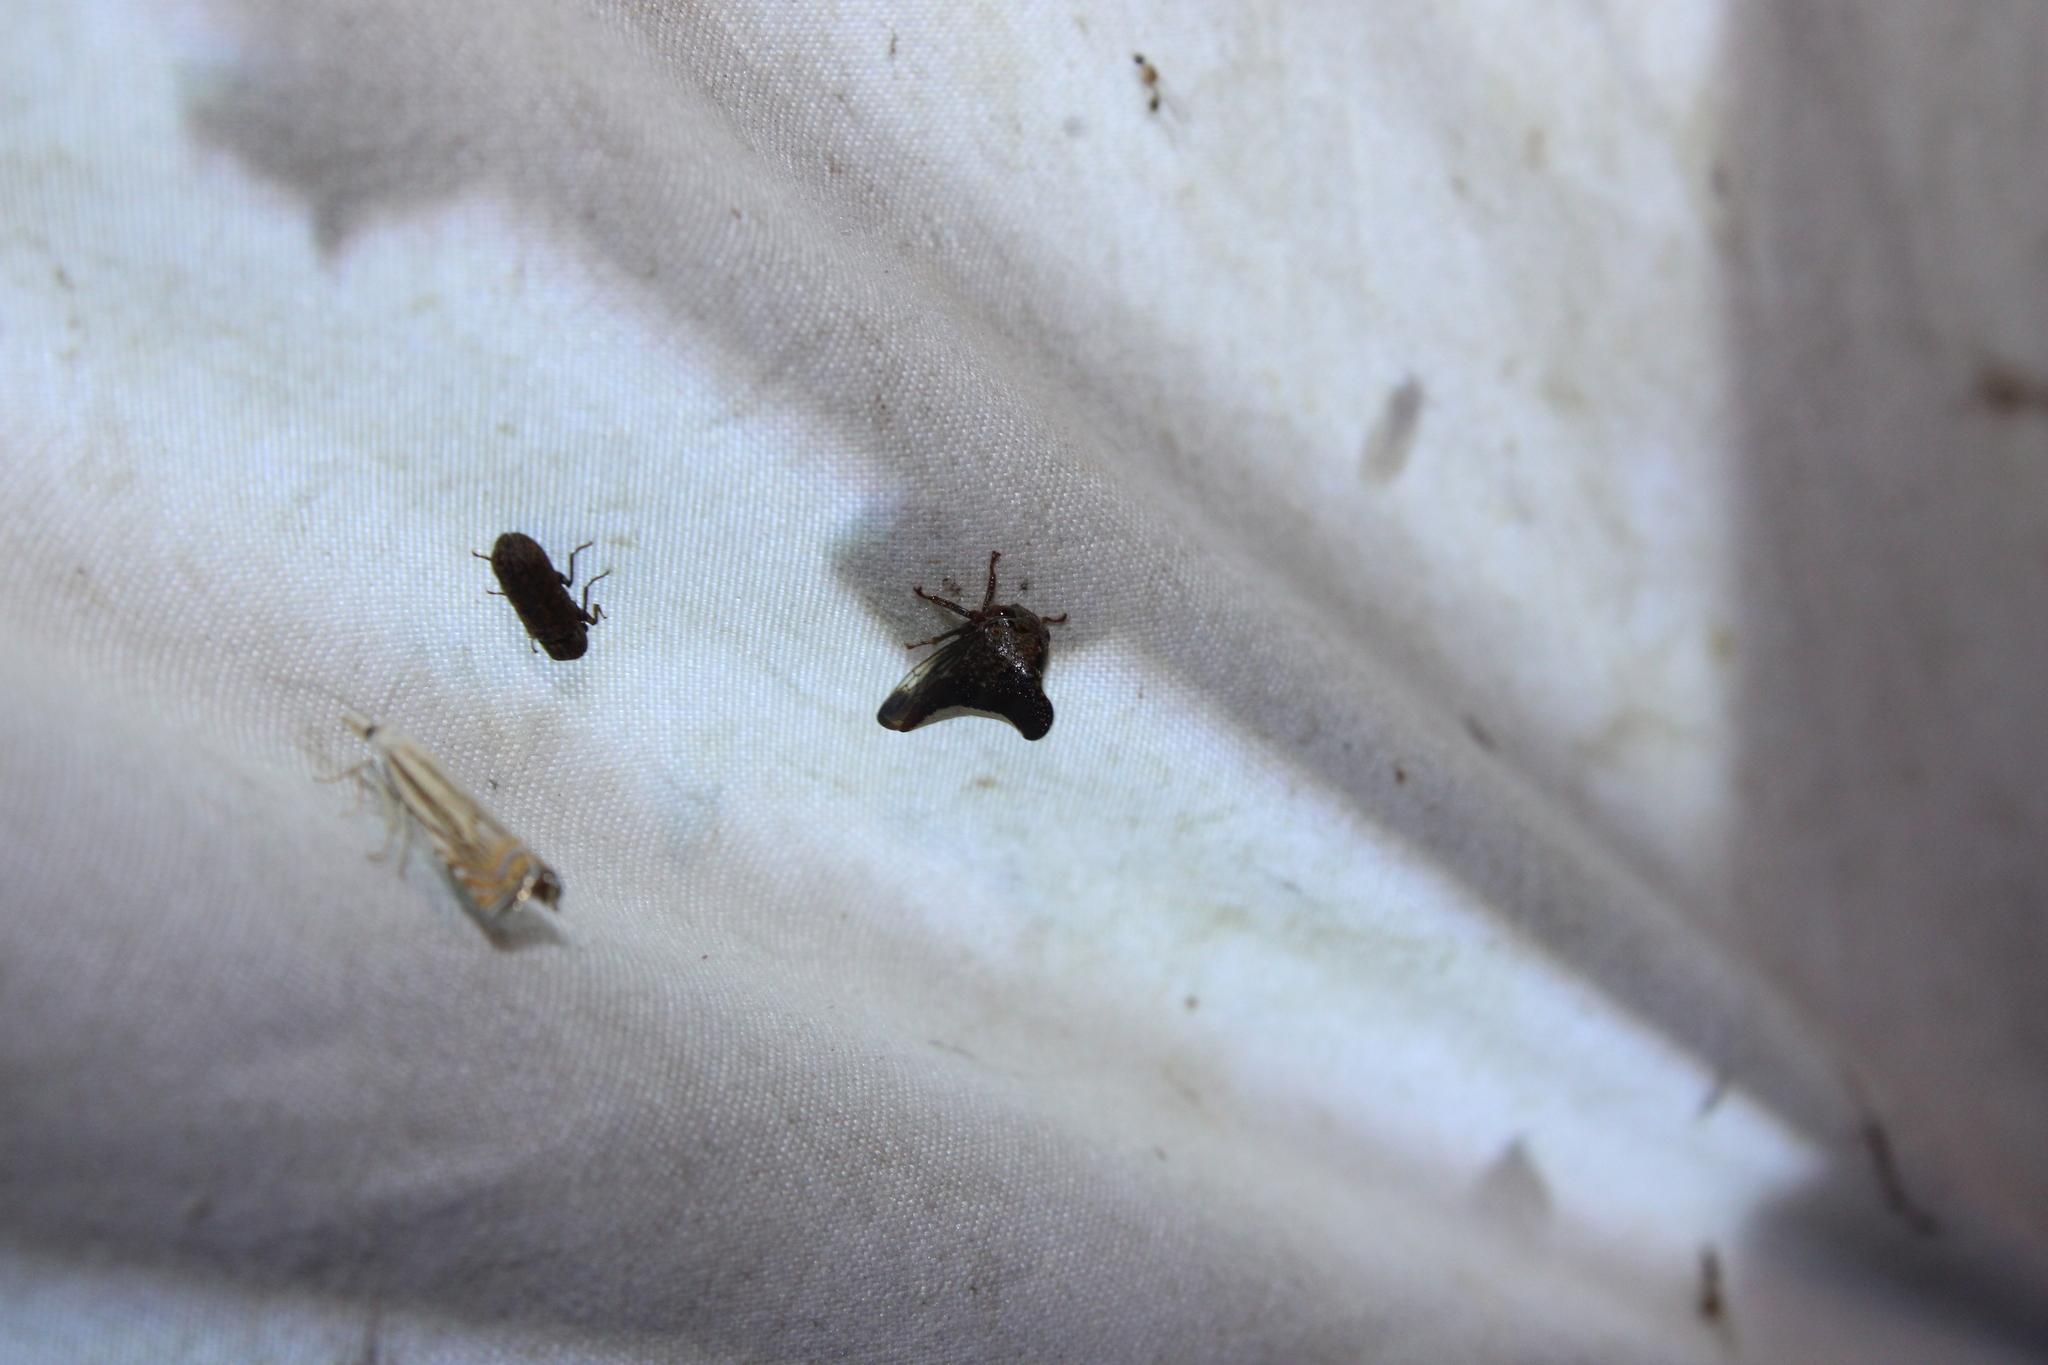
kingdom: Animalia
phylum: Arthropoda
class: Insecta
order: Hemiptera
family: Membracidae
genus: Glossonotus
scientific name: Glossonotus univittatus
